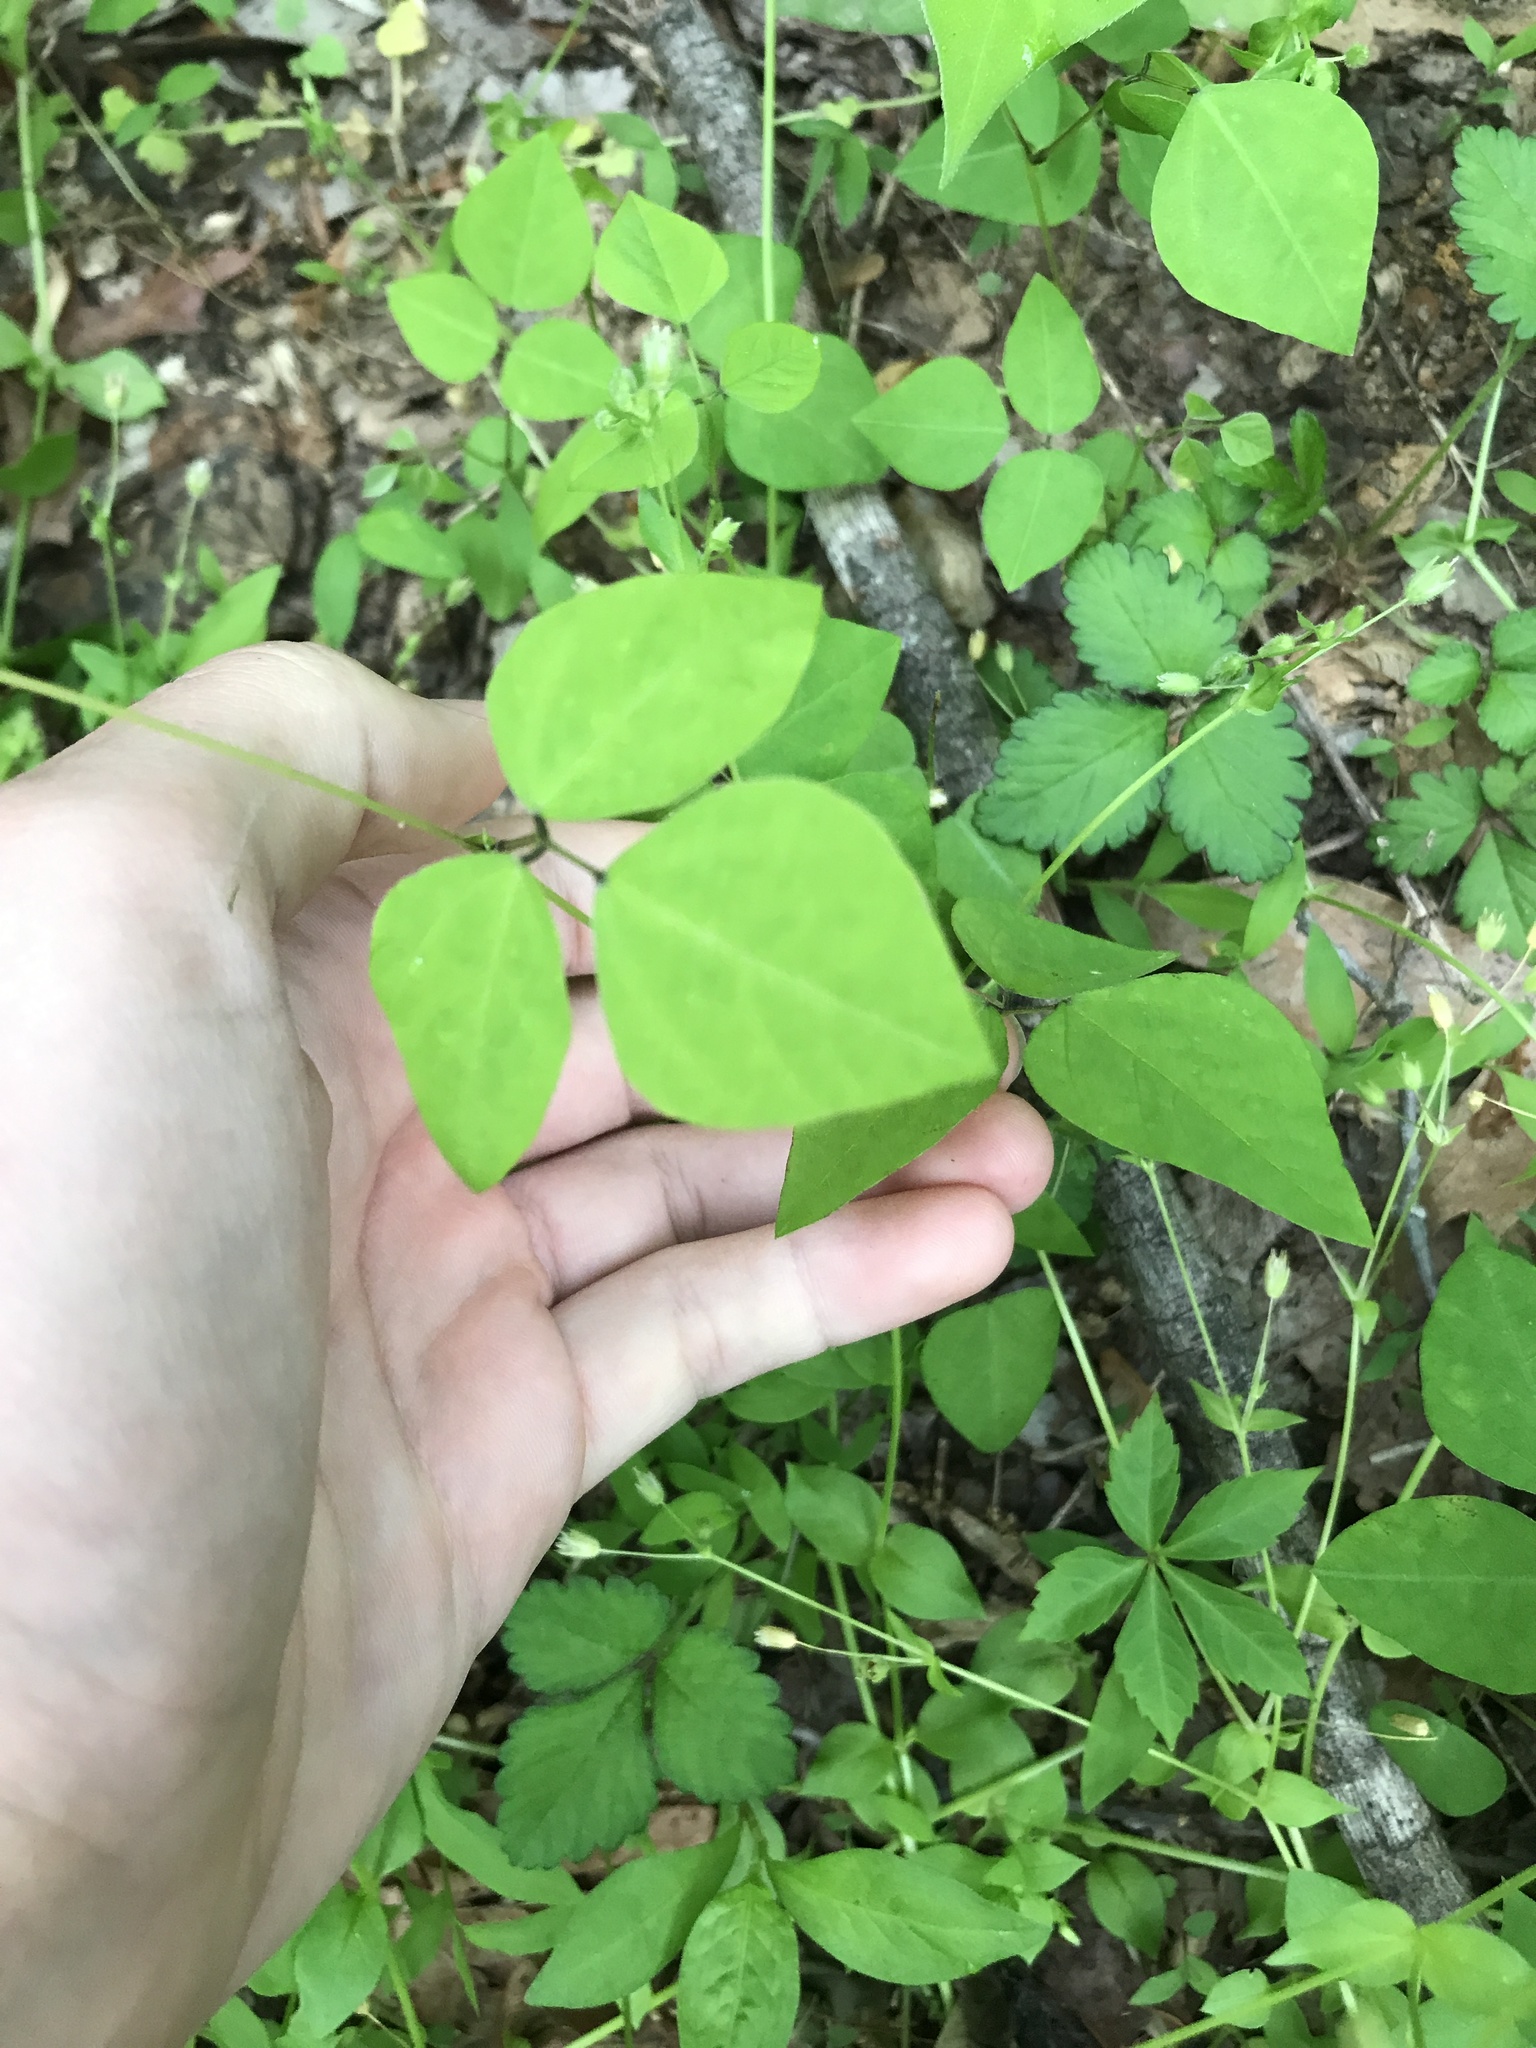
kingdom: Plantae
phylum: Tracheophyta
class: Magnoliopsida
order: Fabales
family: Fabaceae
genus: Amphicarpaea
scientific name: Amphicarpaea bracteata
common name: American hog peanut
